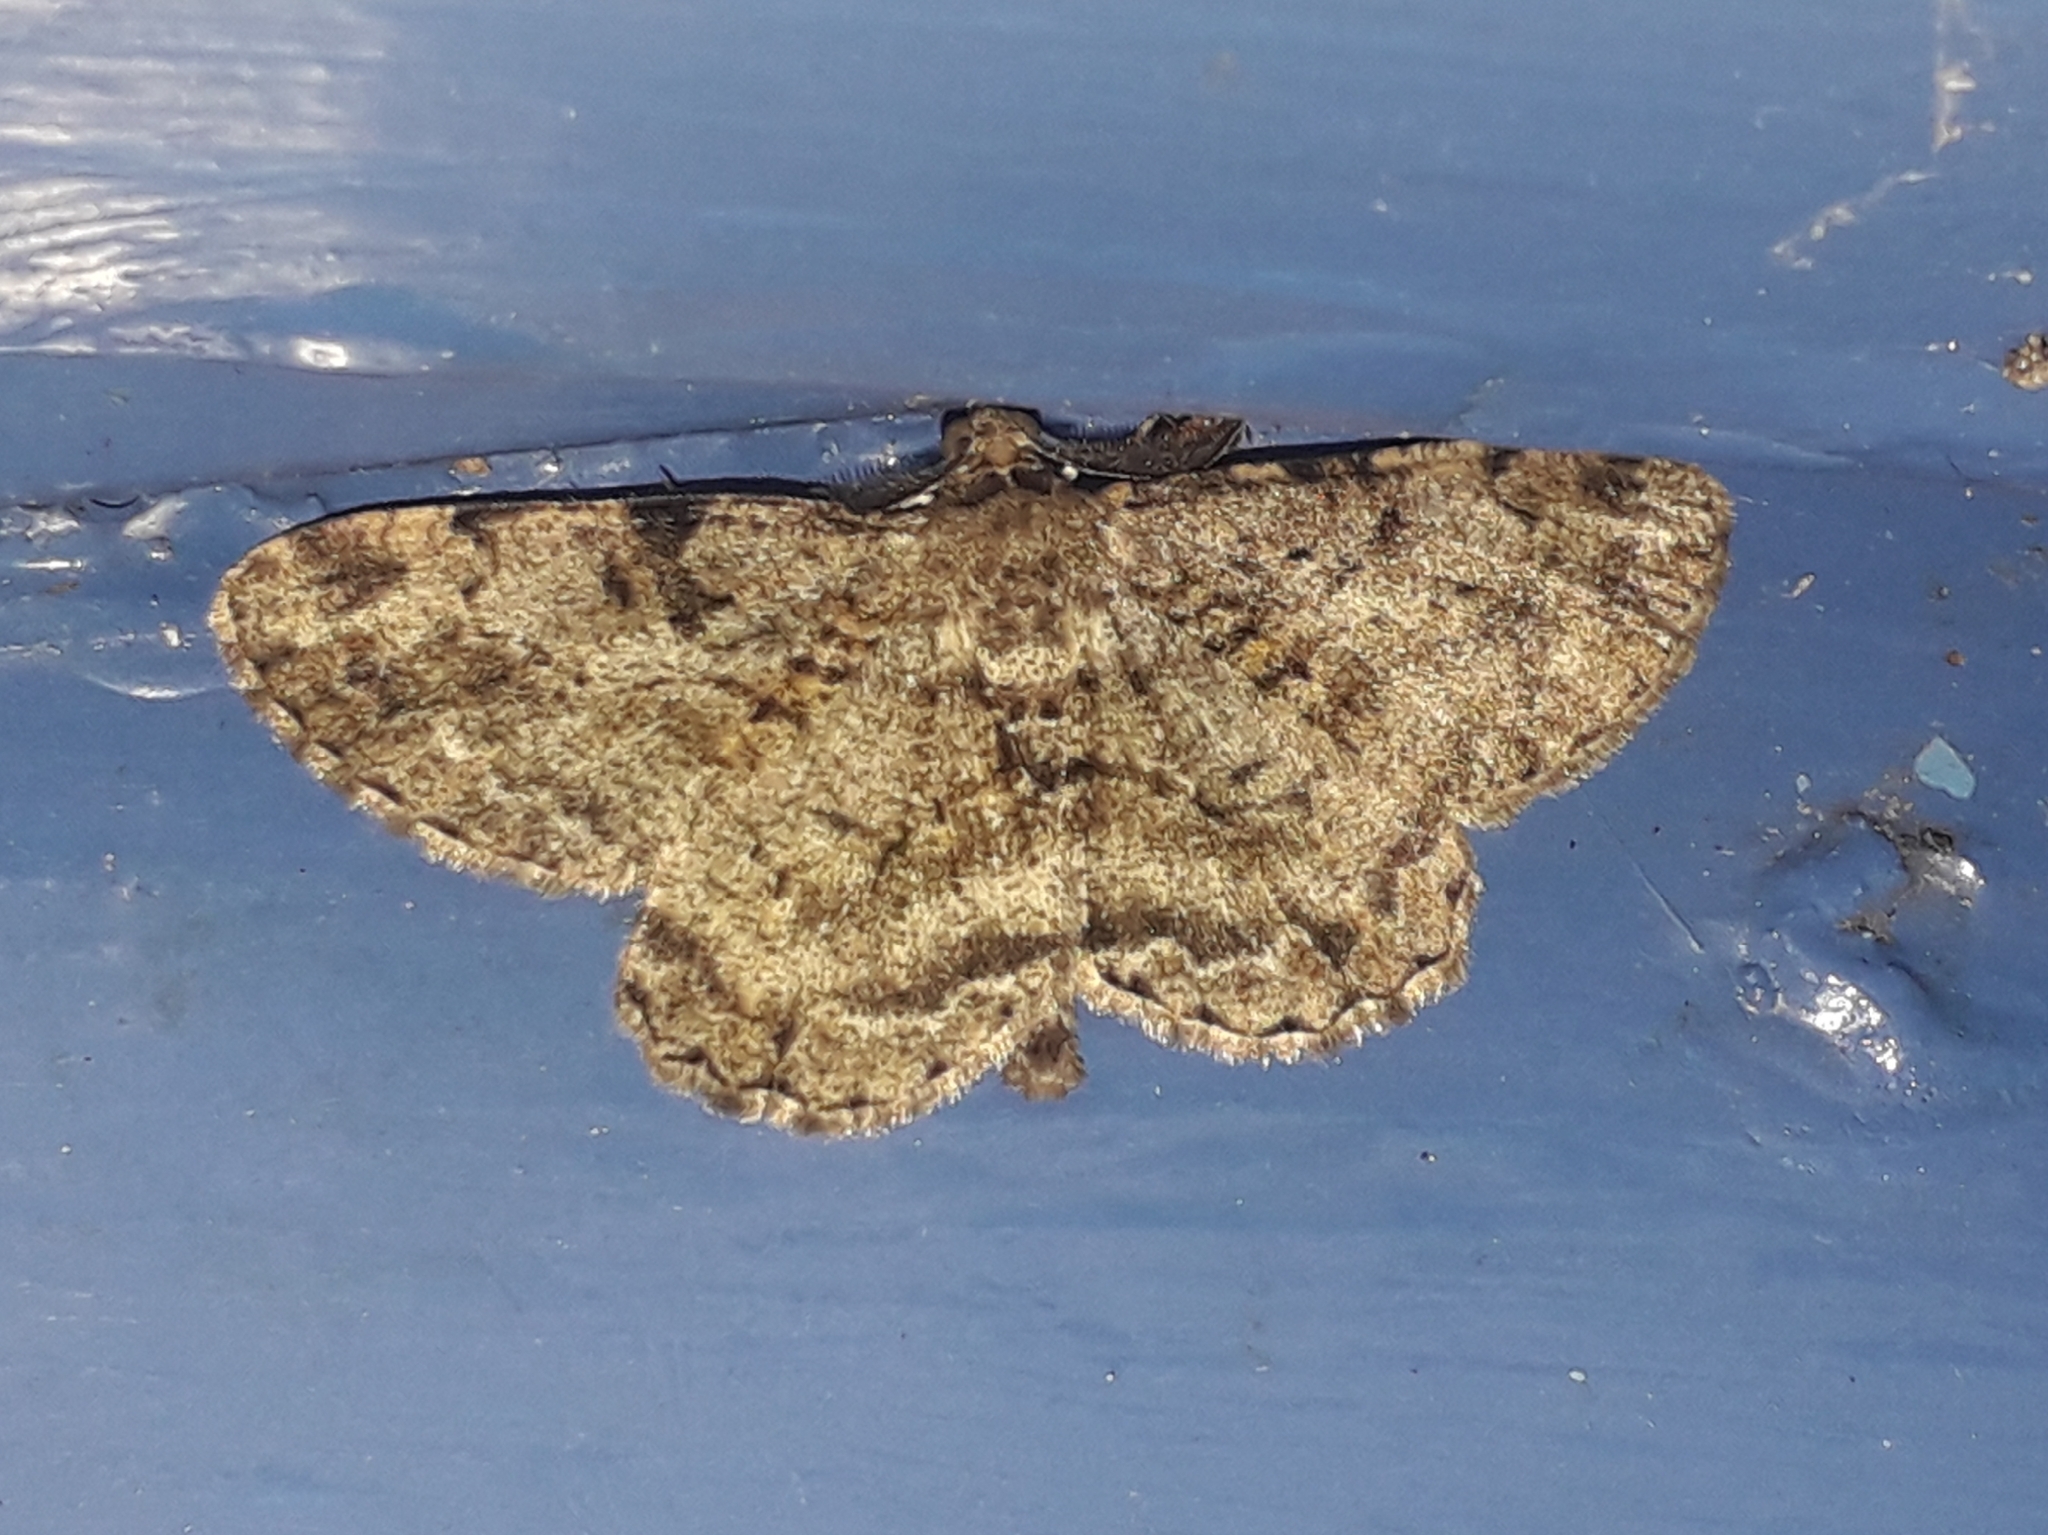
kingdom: Animalia
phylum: Arthropoda
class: Insecta
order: Lepidoptera
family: Geometridae
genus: Peribatodes
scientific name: Peribatodes rhomboidaria
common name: Willow beauty
